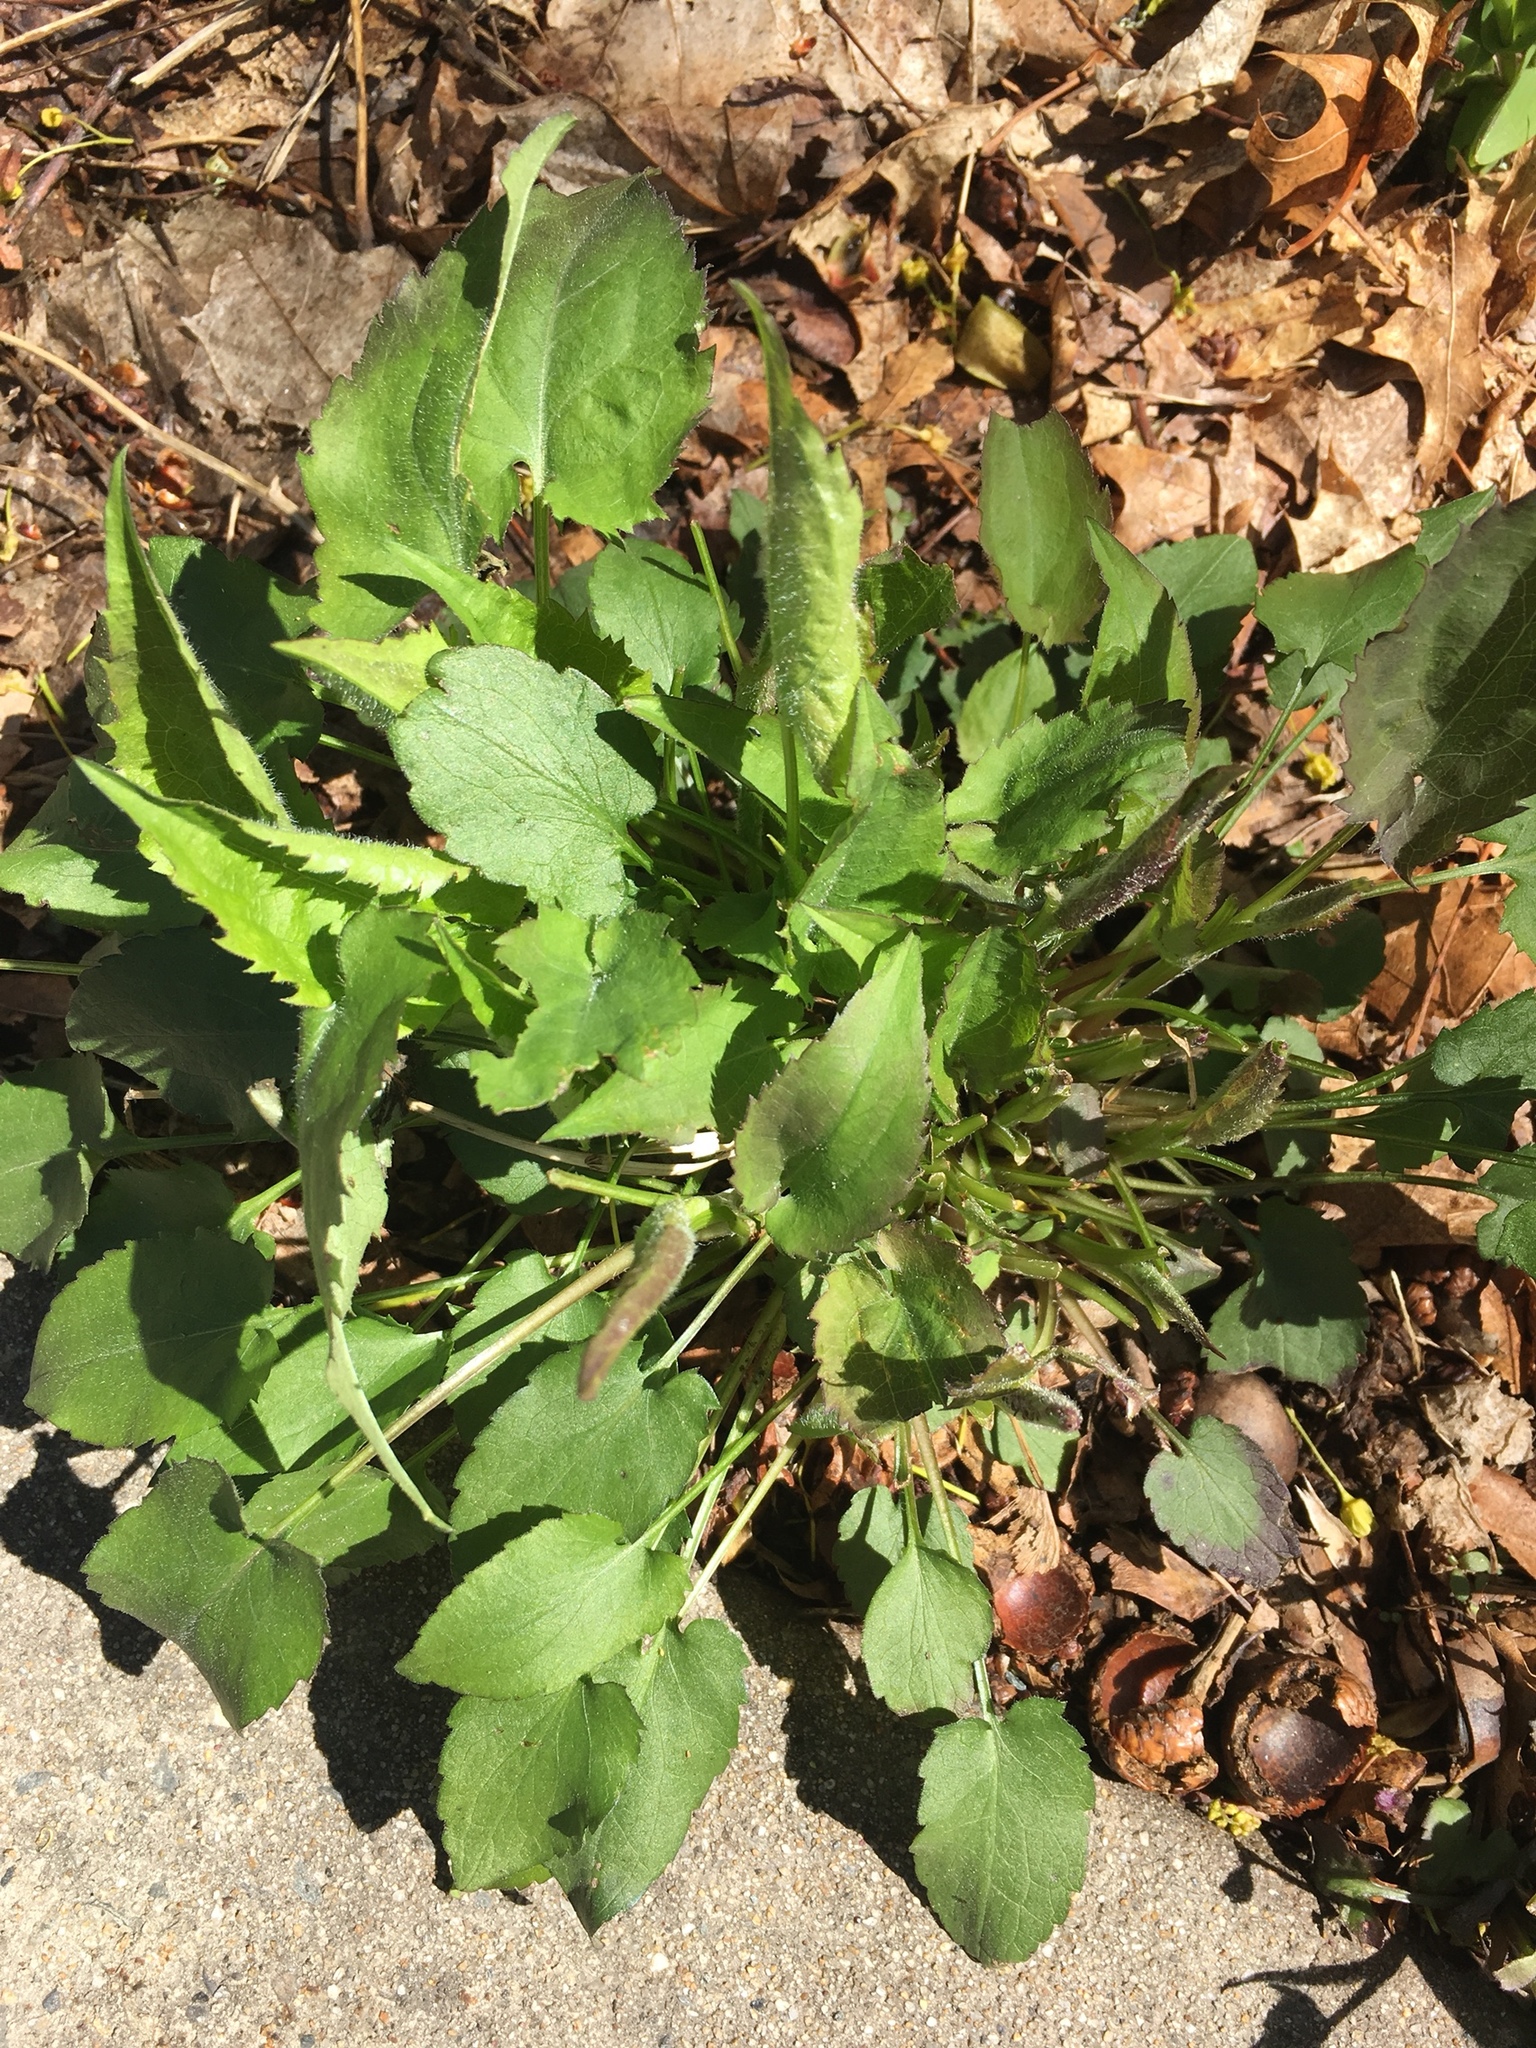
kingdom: Plantae
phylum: Tracheophyta
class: Magnoliopsida
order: Asterales
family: Asteraceae
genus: Symphyotrichum
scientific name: Symphyotrichum cordifolium
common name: Beeweed
